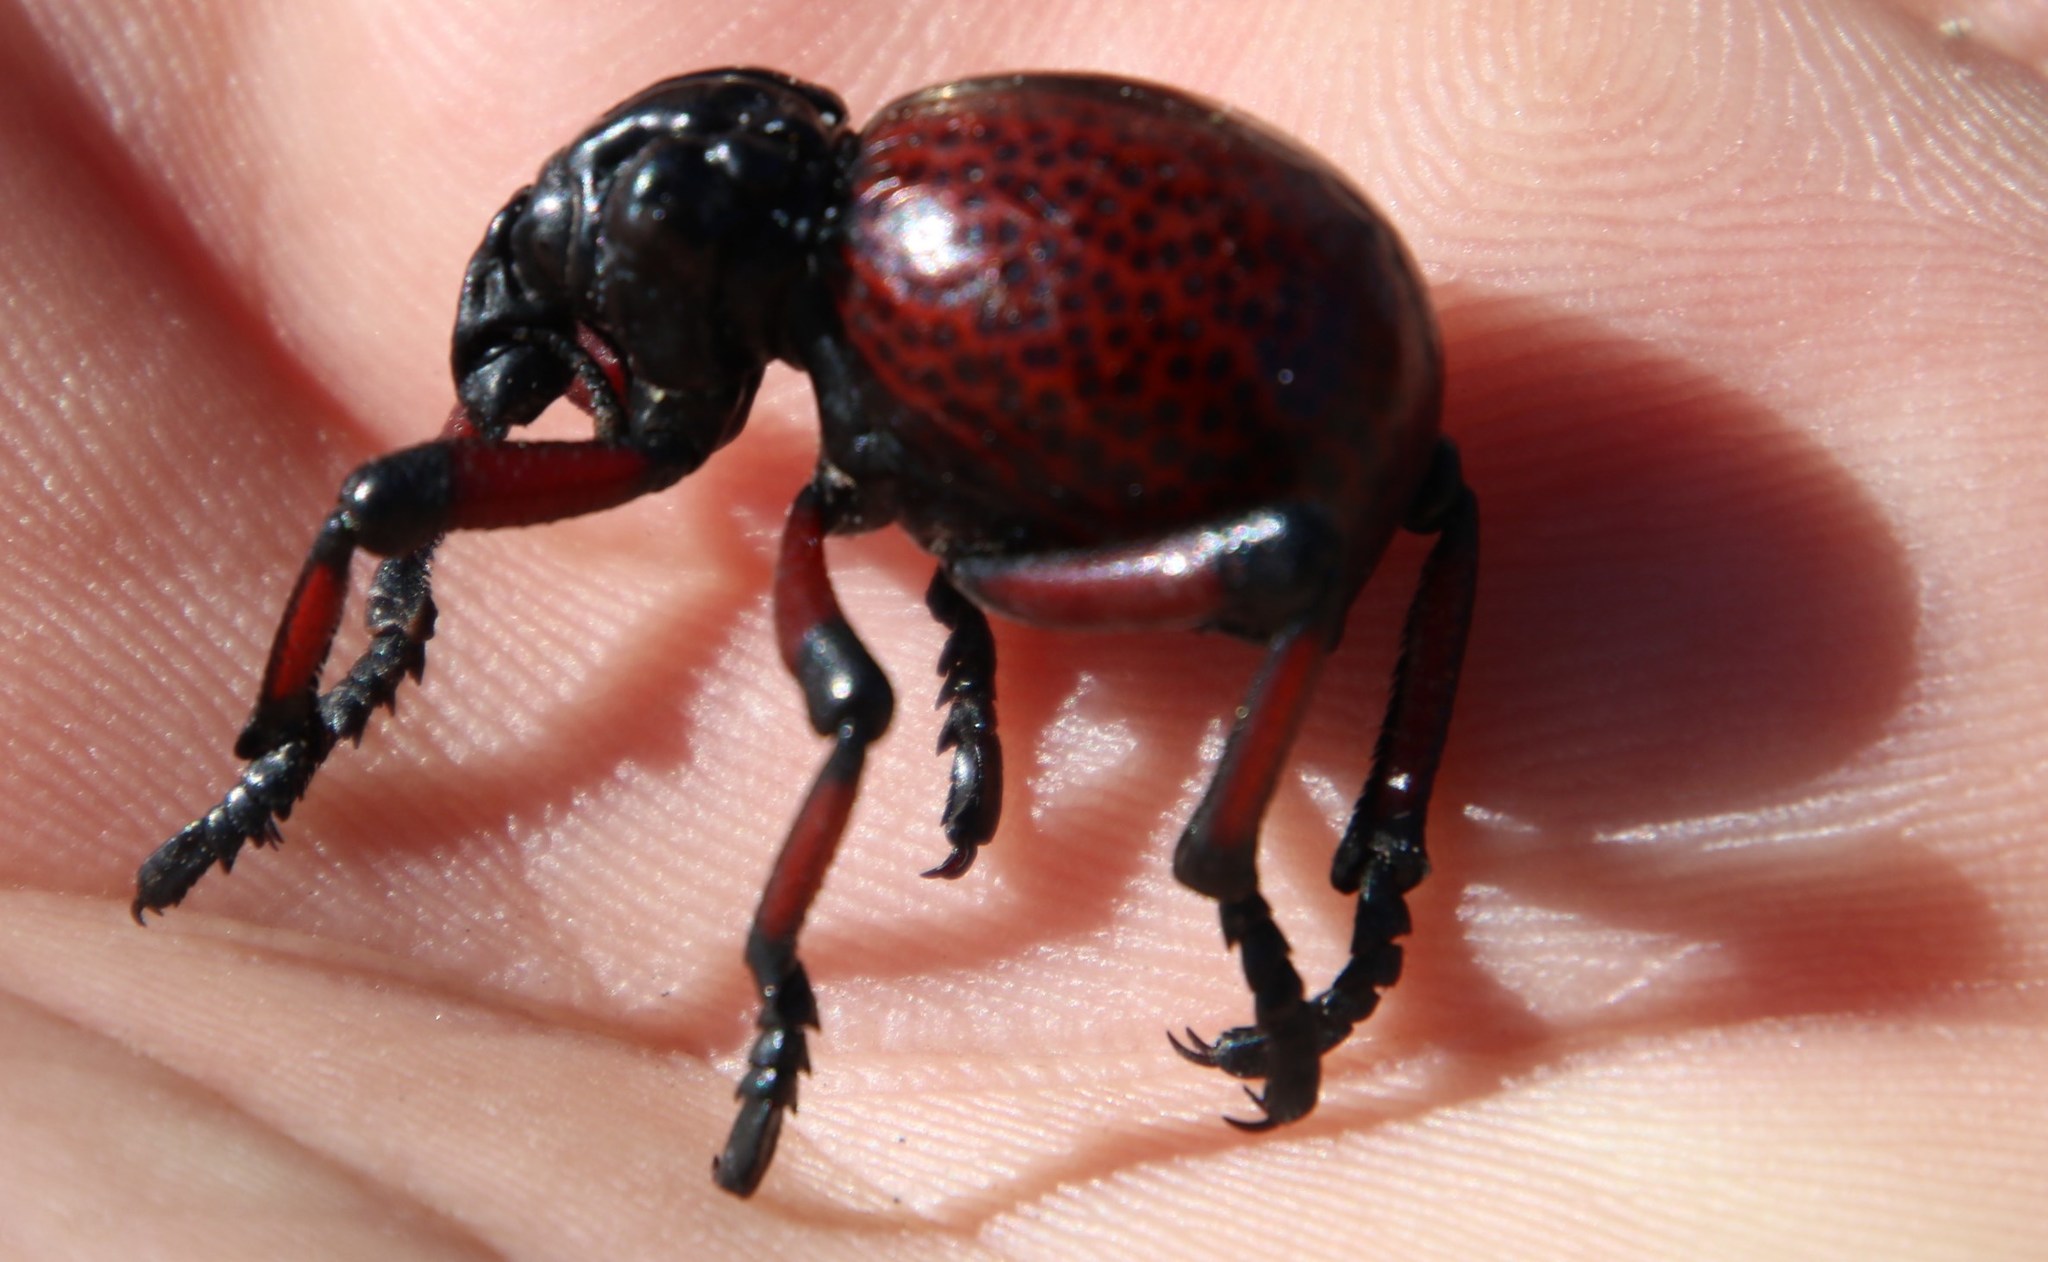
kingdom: Animalia
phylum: Arthropoda
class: Insecta
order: Coleoptera
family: Brachyceridae
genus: Brachycerus
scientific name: Brachycerus obesus
